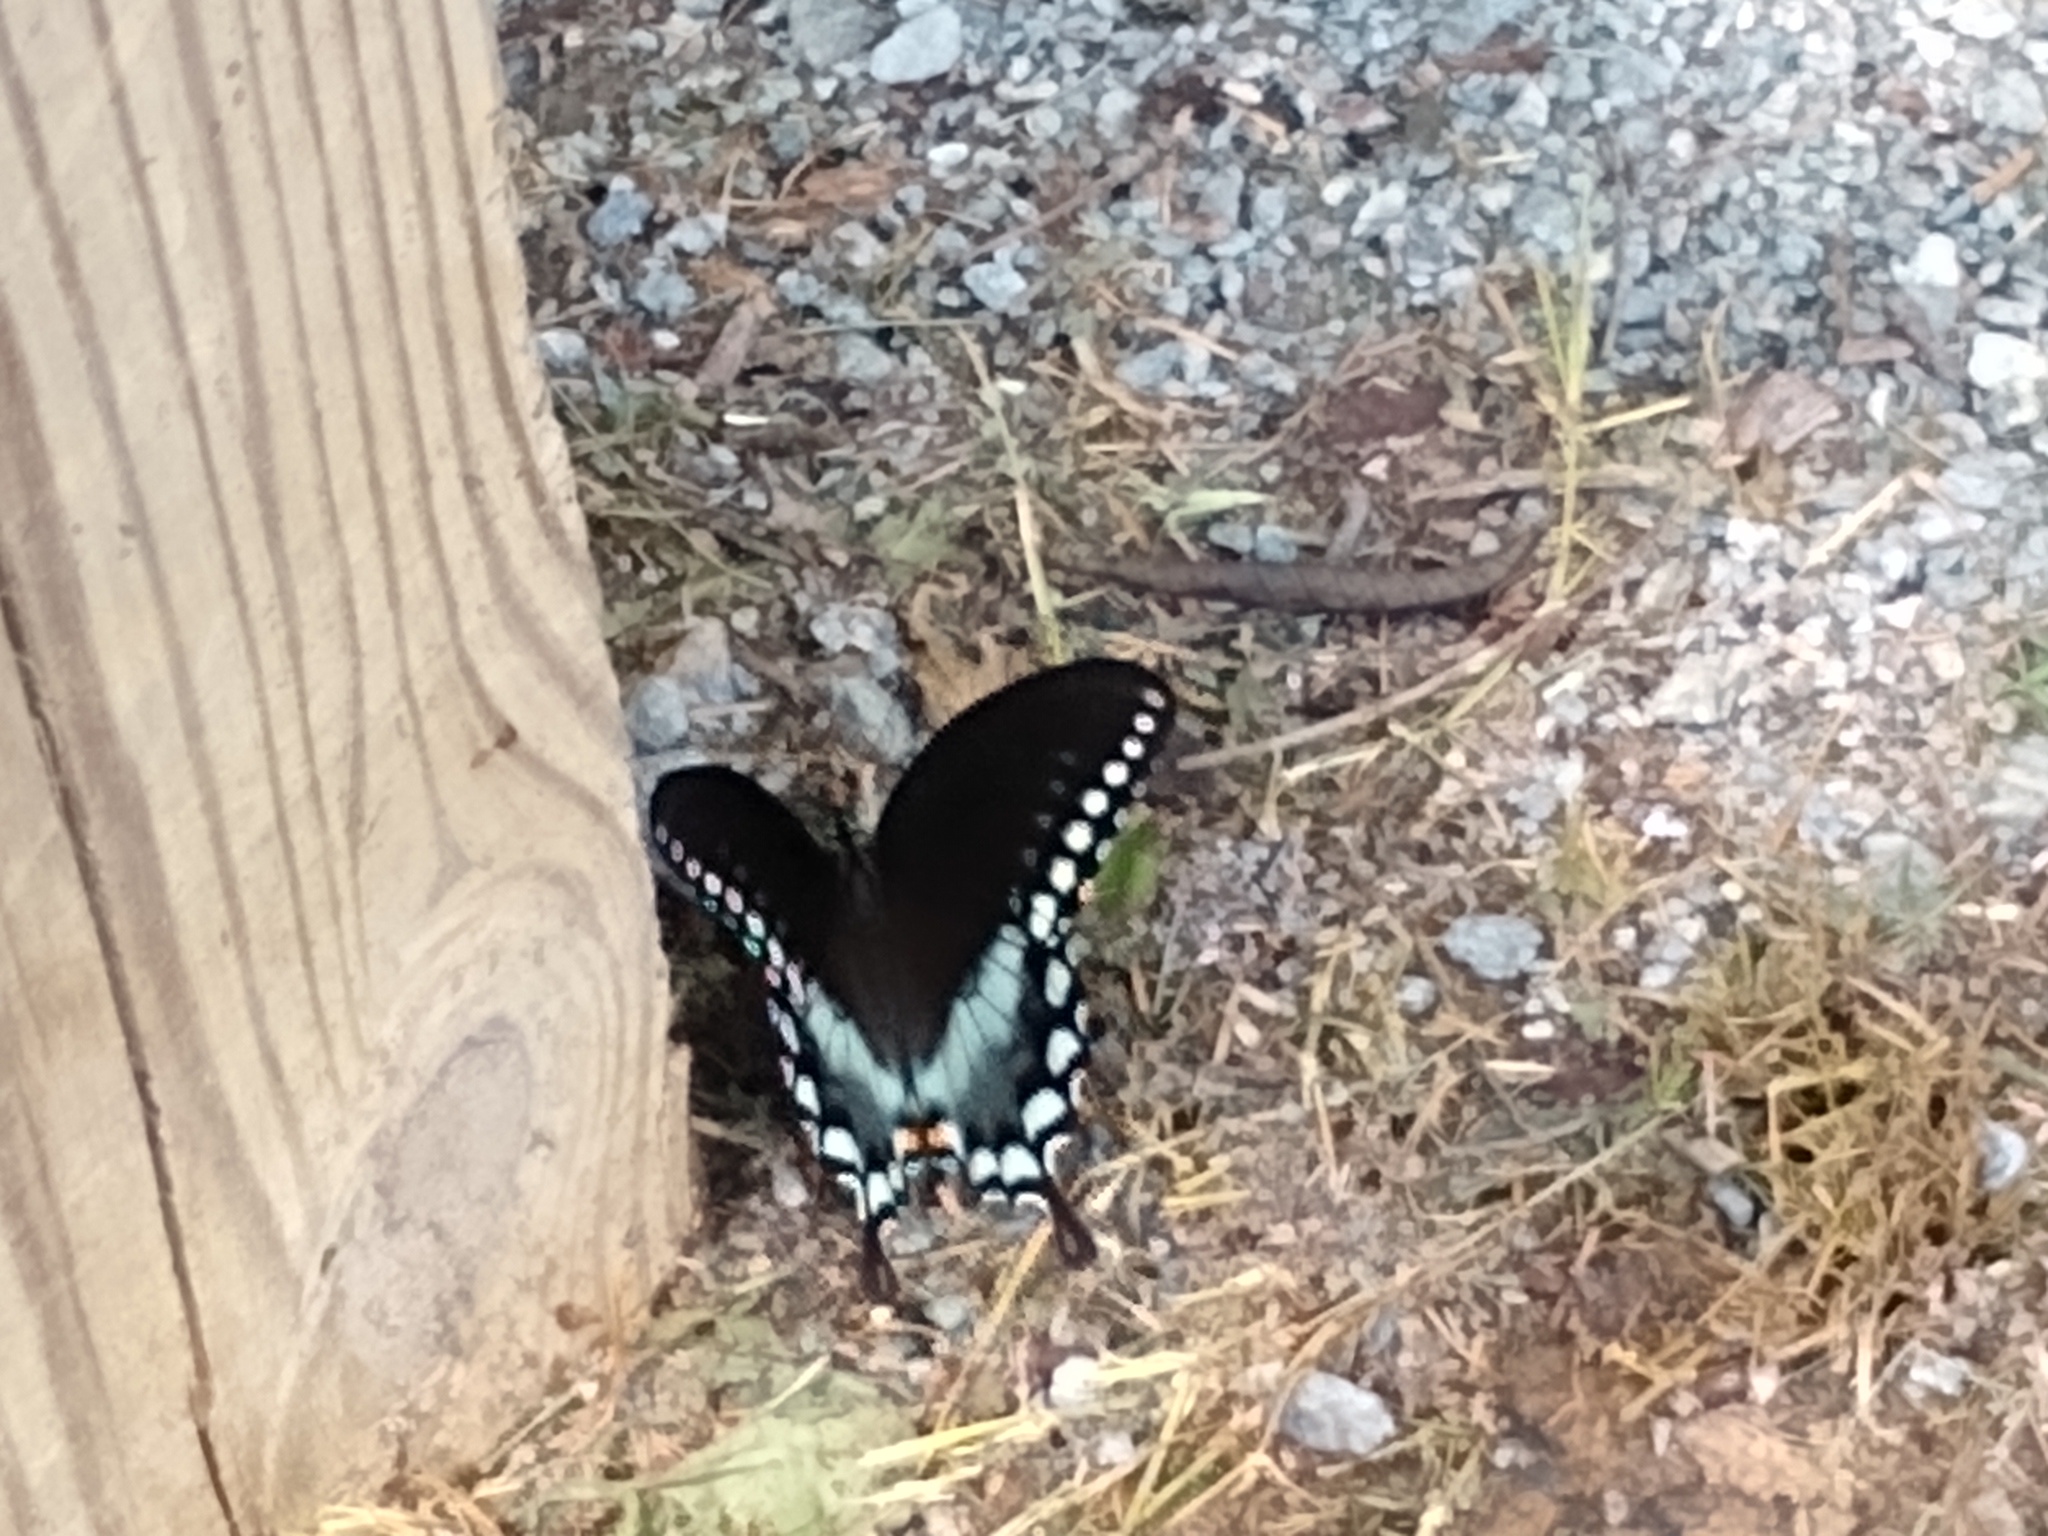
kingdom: Animalia
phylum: Arthropoda
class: Insecta
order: Lepidoptera
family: Papilionidae
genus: Papilio
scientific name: Papilio troilus
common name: Spicebush swallowtail
